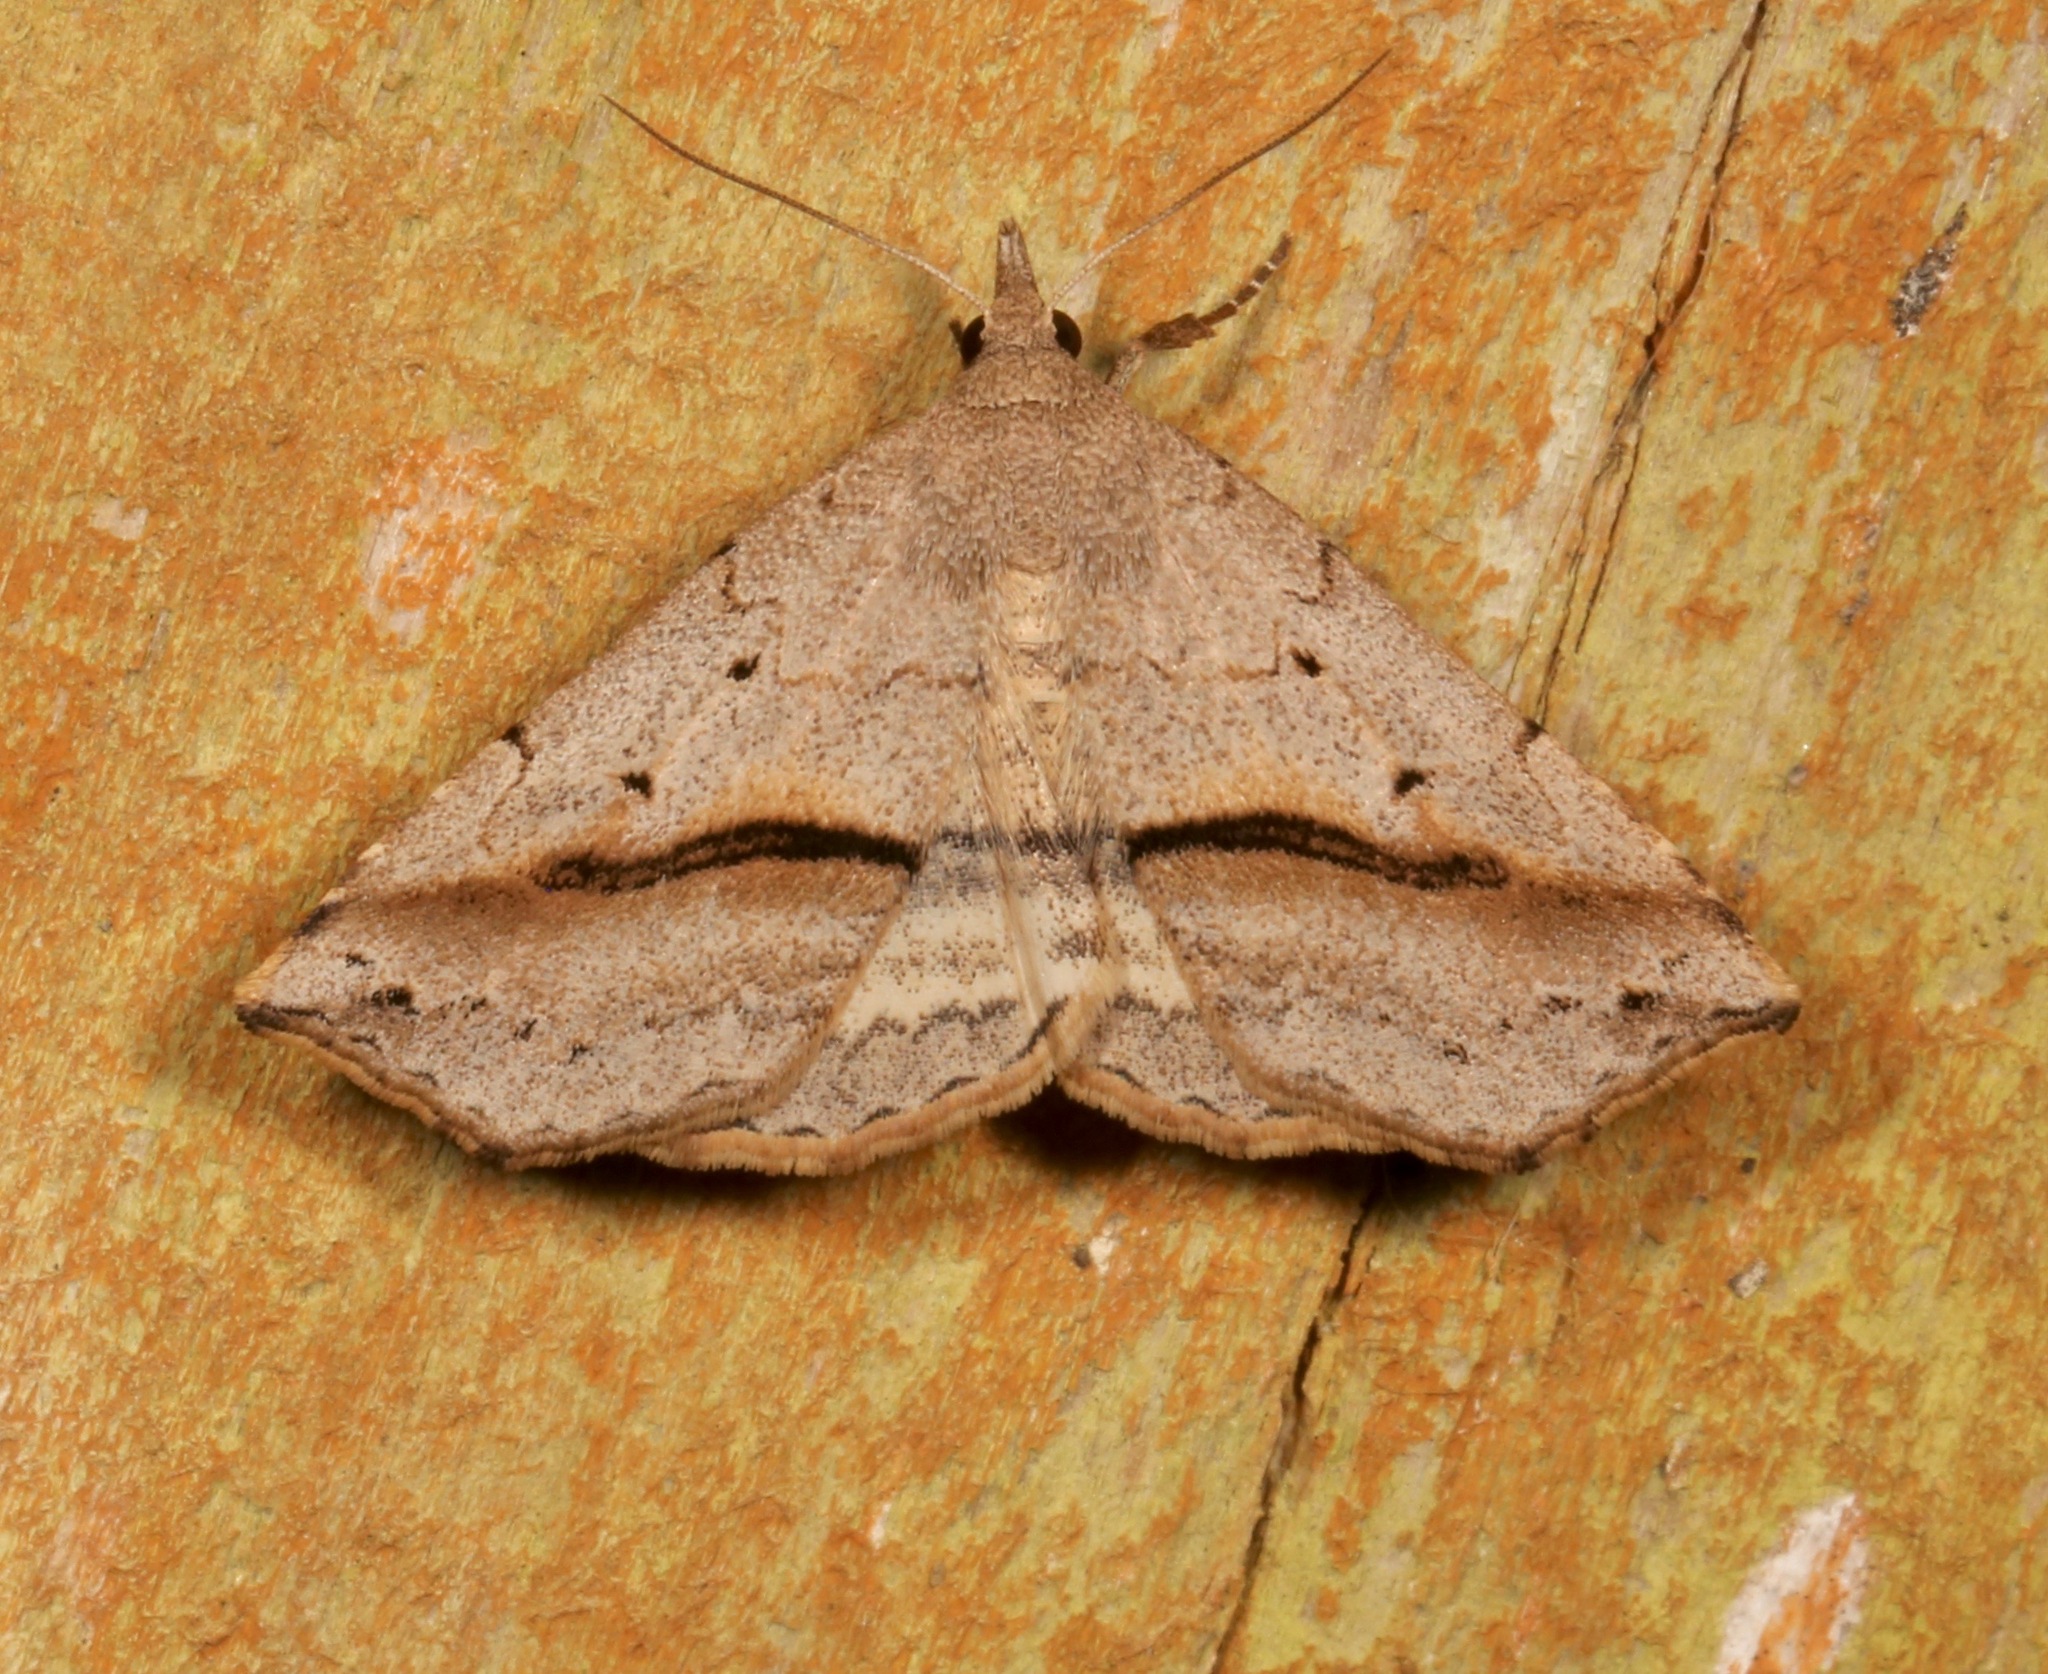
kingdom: Animalia
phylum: Arthropoda
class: Insecta
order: Lepidoptera
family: Erebidae
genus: Spargaloma
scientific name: Spargaloma perditalis
